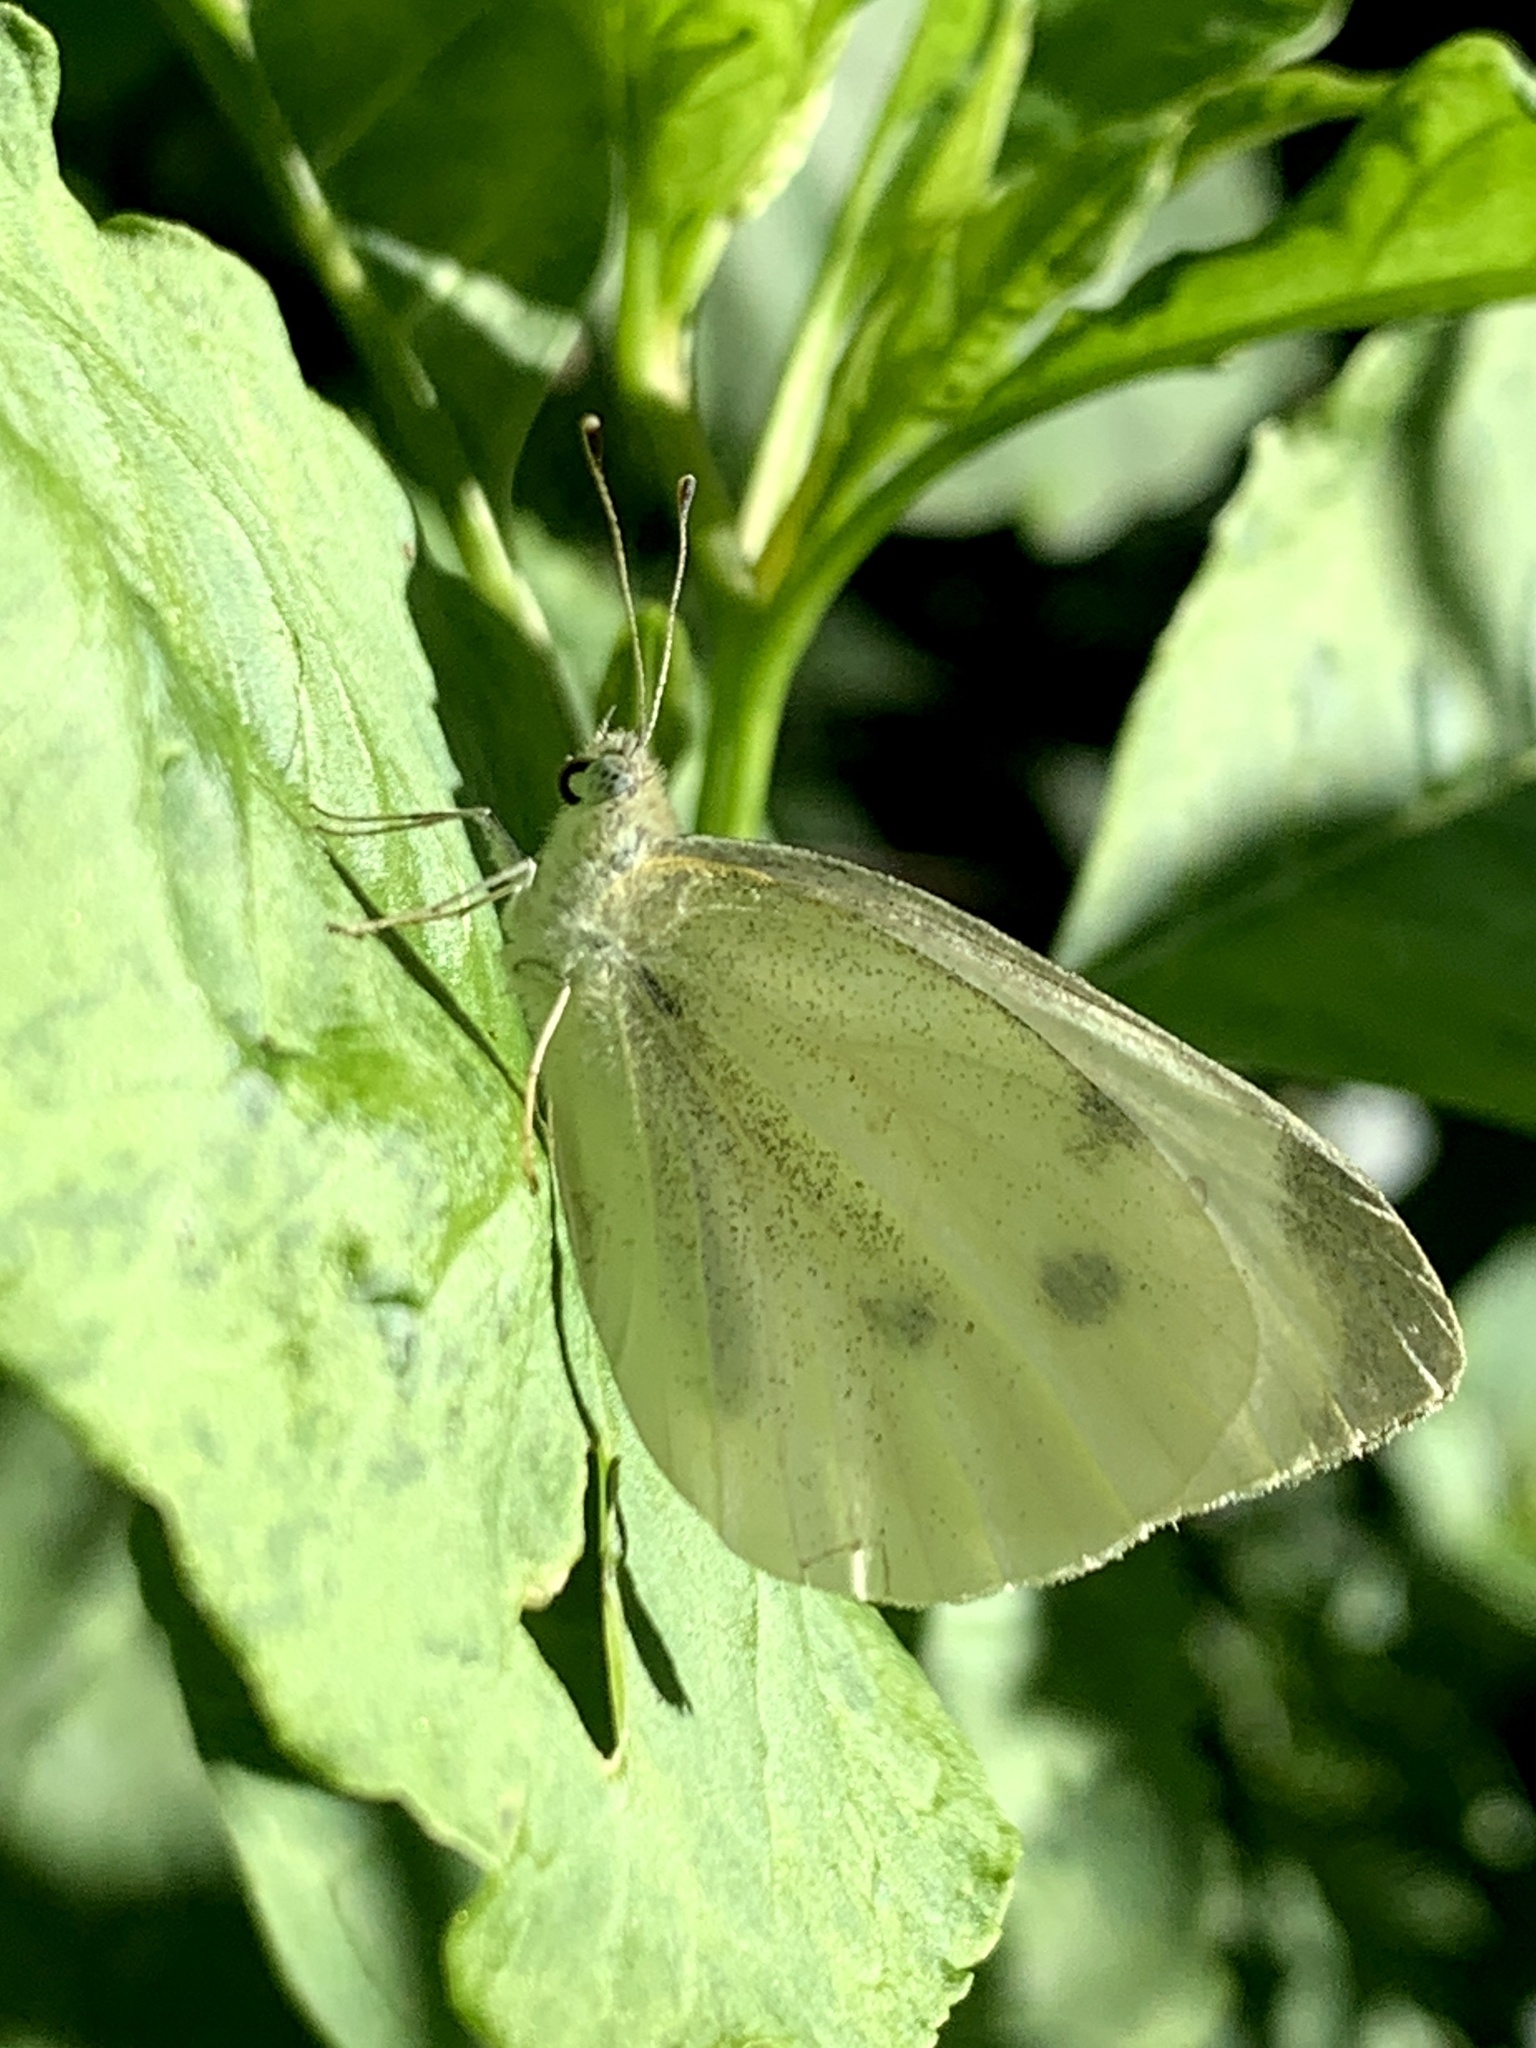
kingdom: Animalia
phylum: Arthropoda
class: Insecta
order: Lepidoptera
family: Pieridae
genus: Pieris
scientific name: Pieris rapae
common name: Small white
